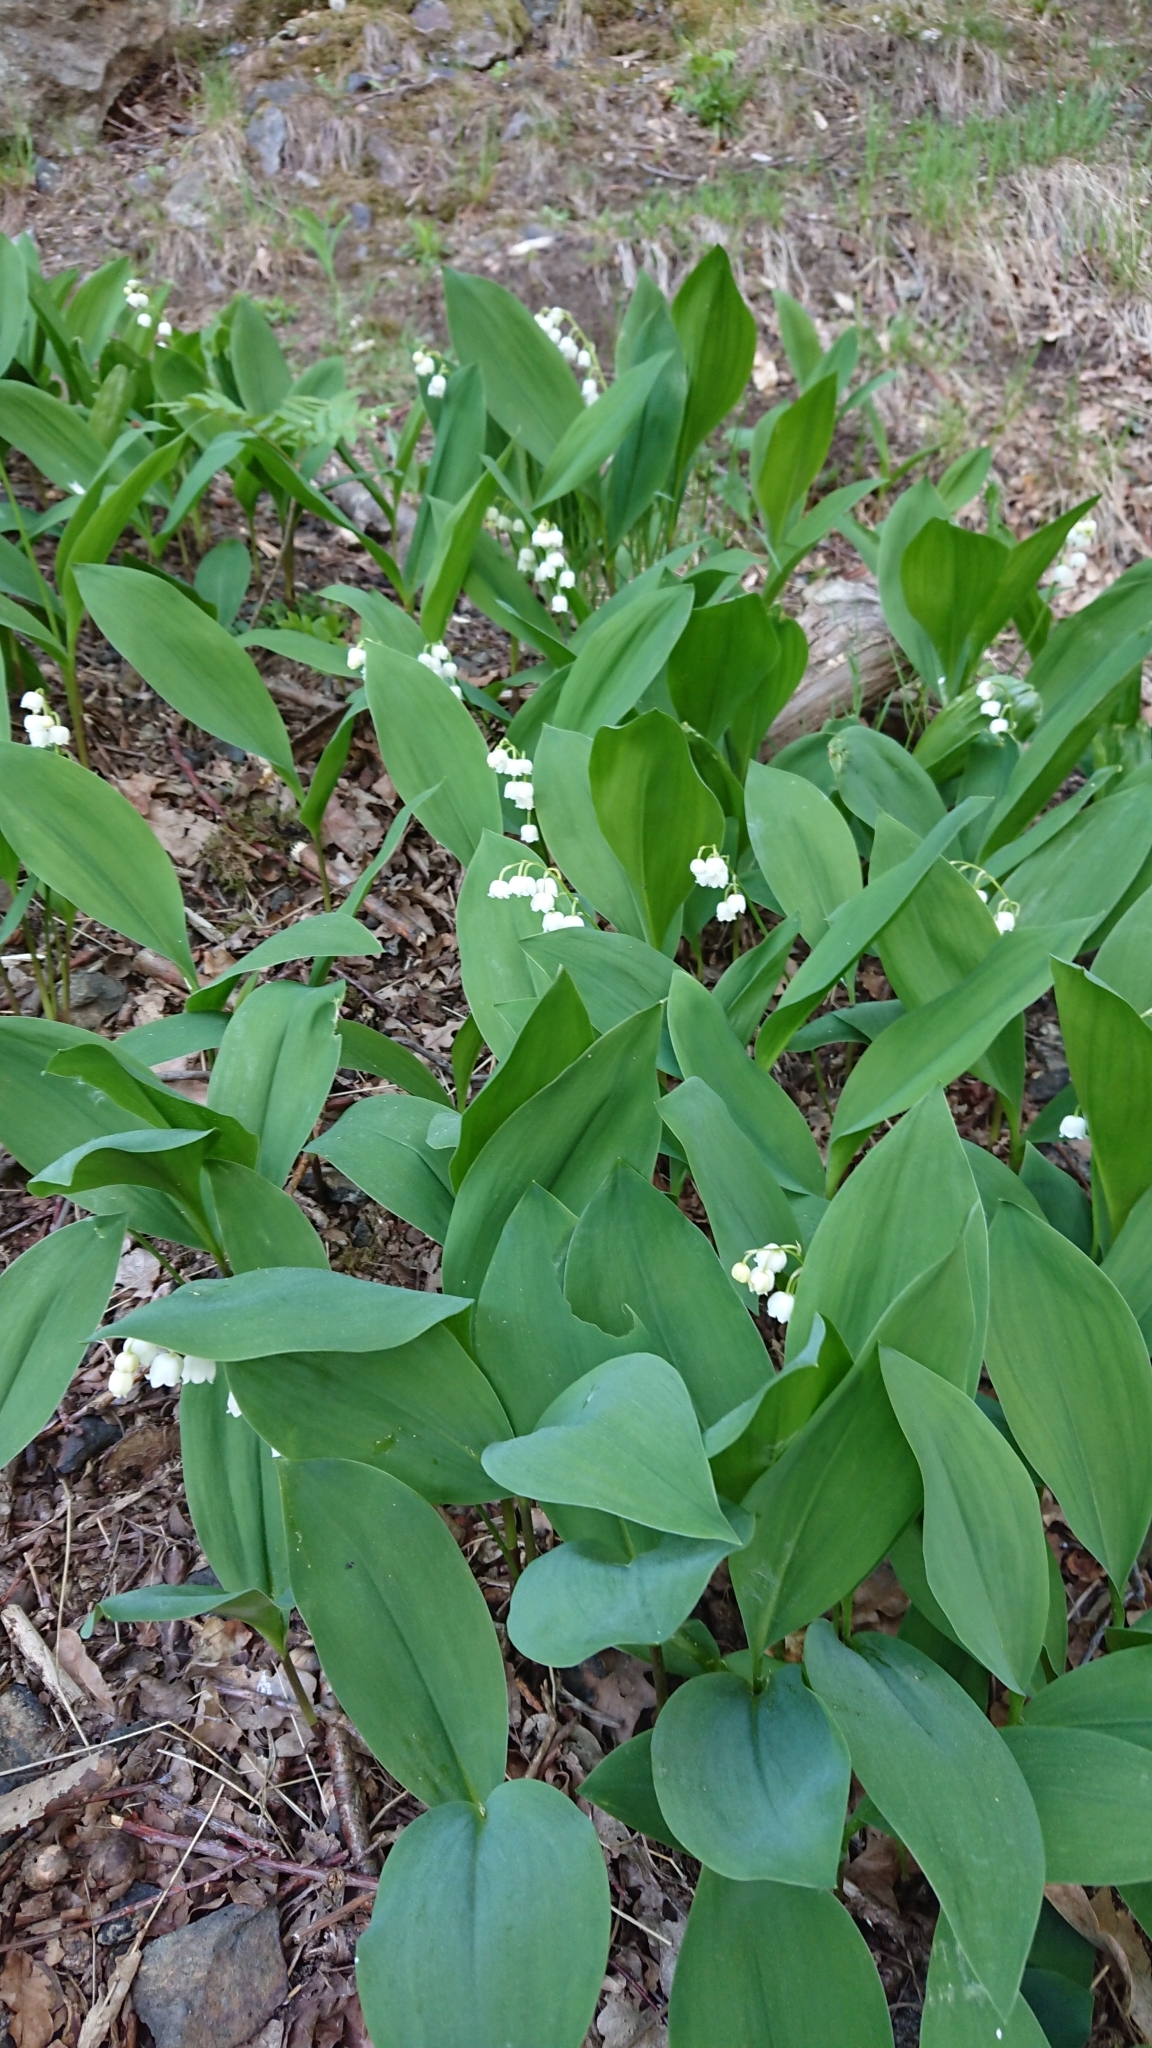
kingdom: Plantae
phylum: Tracheophyta
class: Liliopsida
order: Asparagales
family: Asparagaceae
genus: Convallaria
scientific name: Convallaria majalis
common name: Lily-of-the-valley
